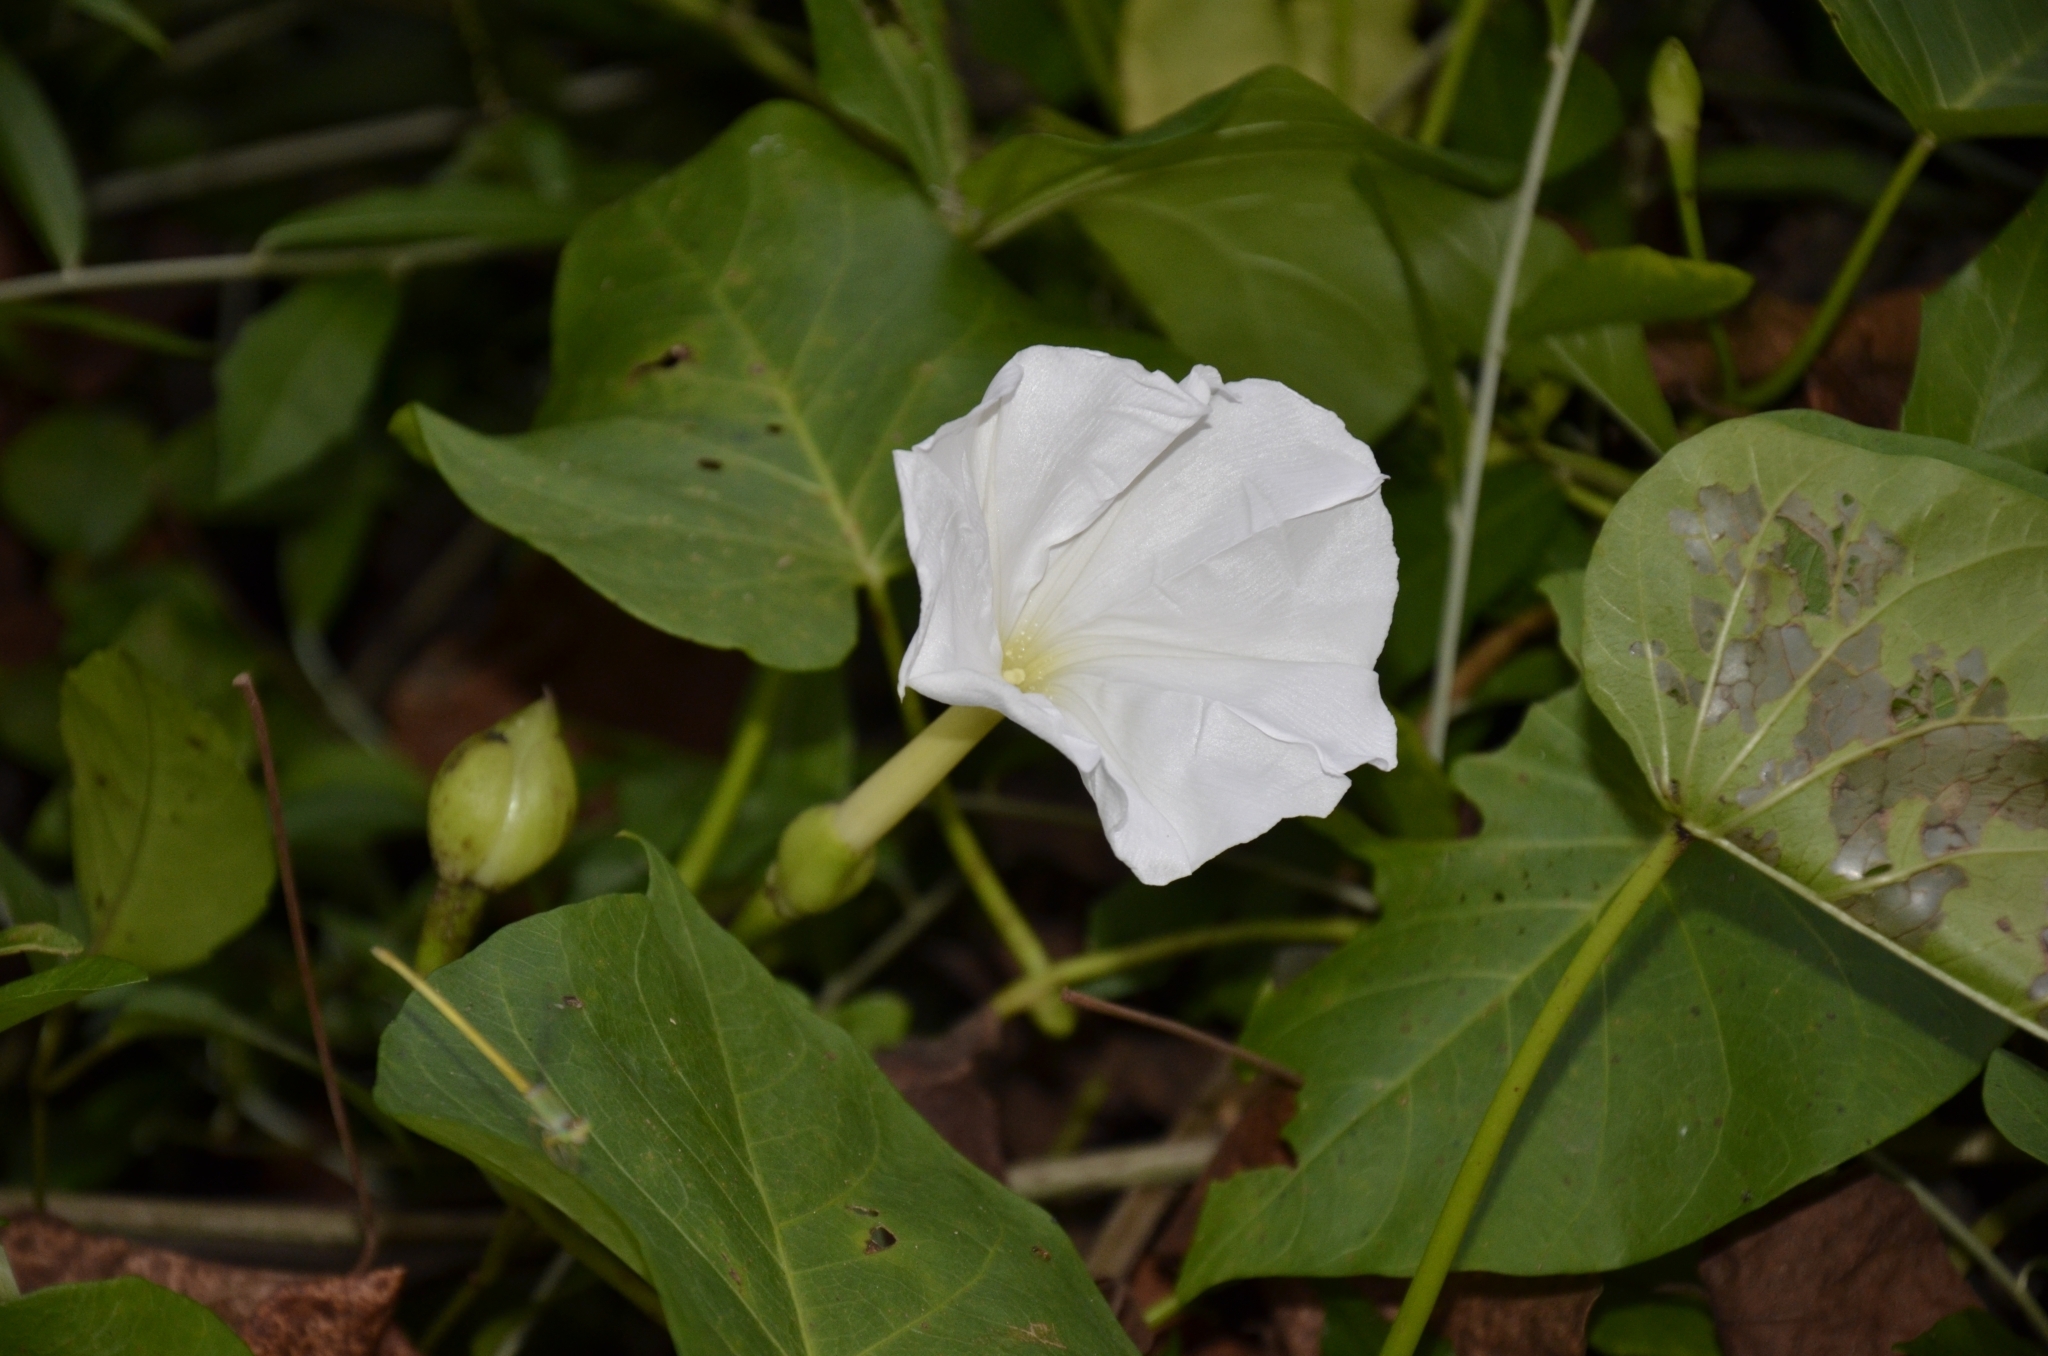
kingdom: Plantae
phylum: Tracheophyta
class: Magnoliopsida
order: Solanales
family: Convolvulaceae
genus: Ipomoea
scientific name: Ipomoea violacea
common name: Beach moonflower
